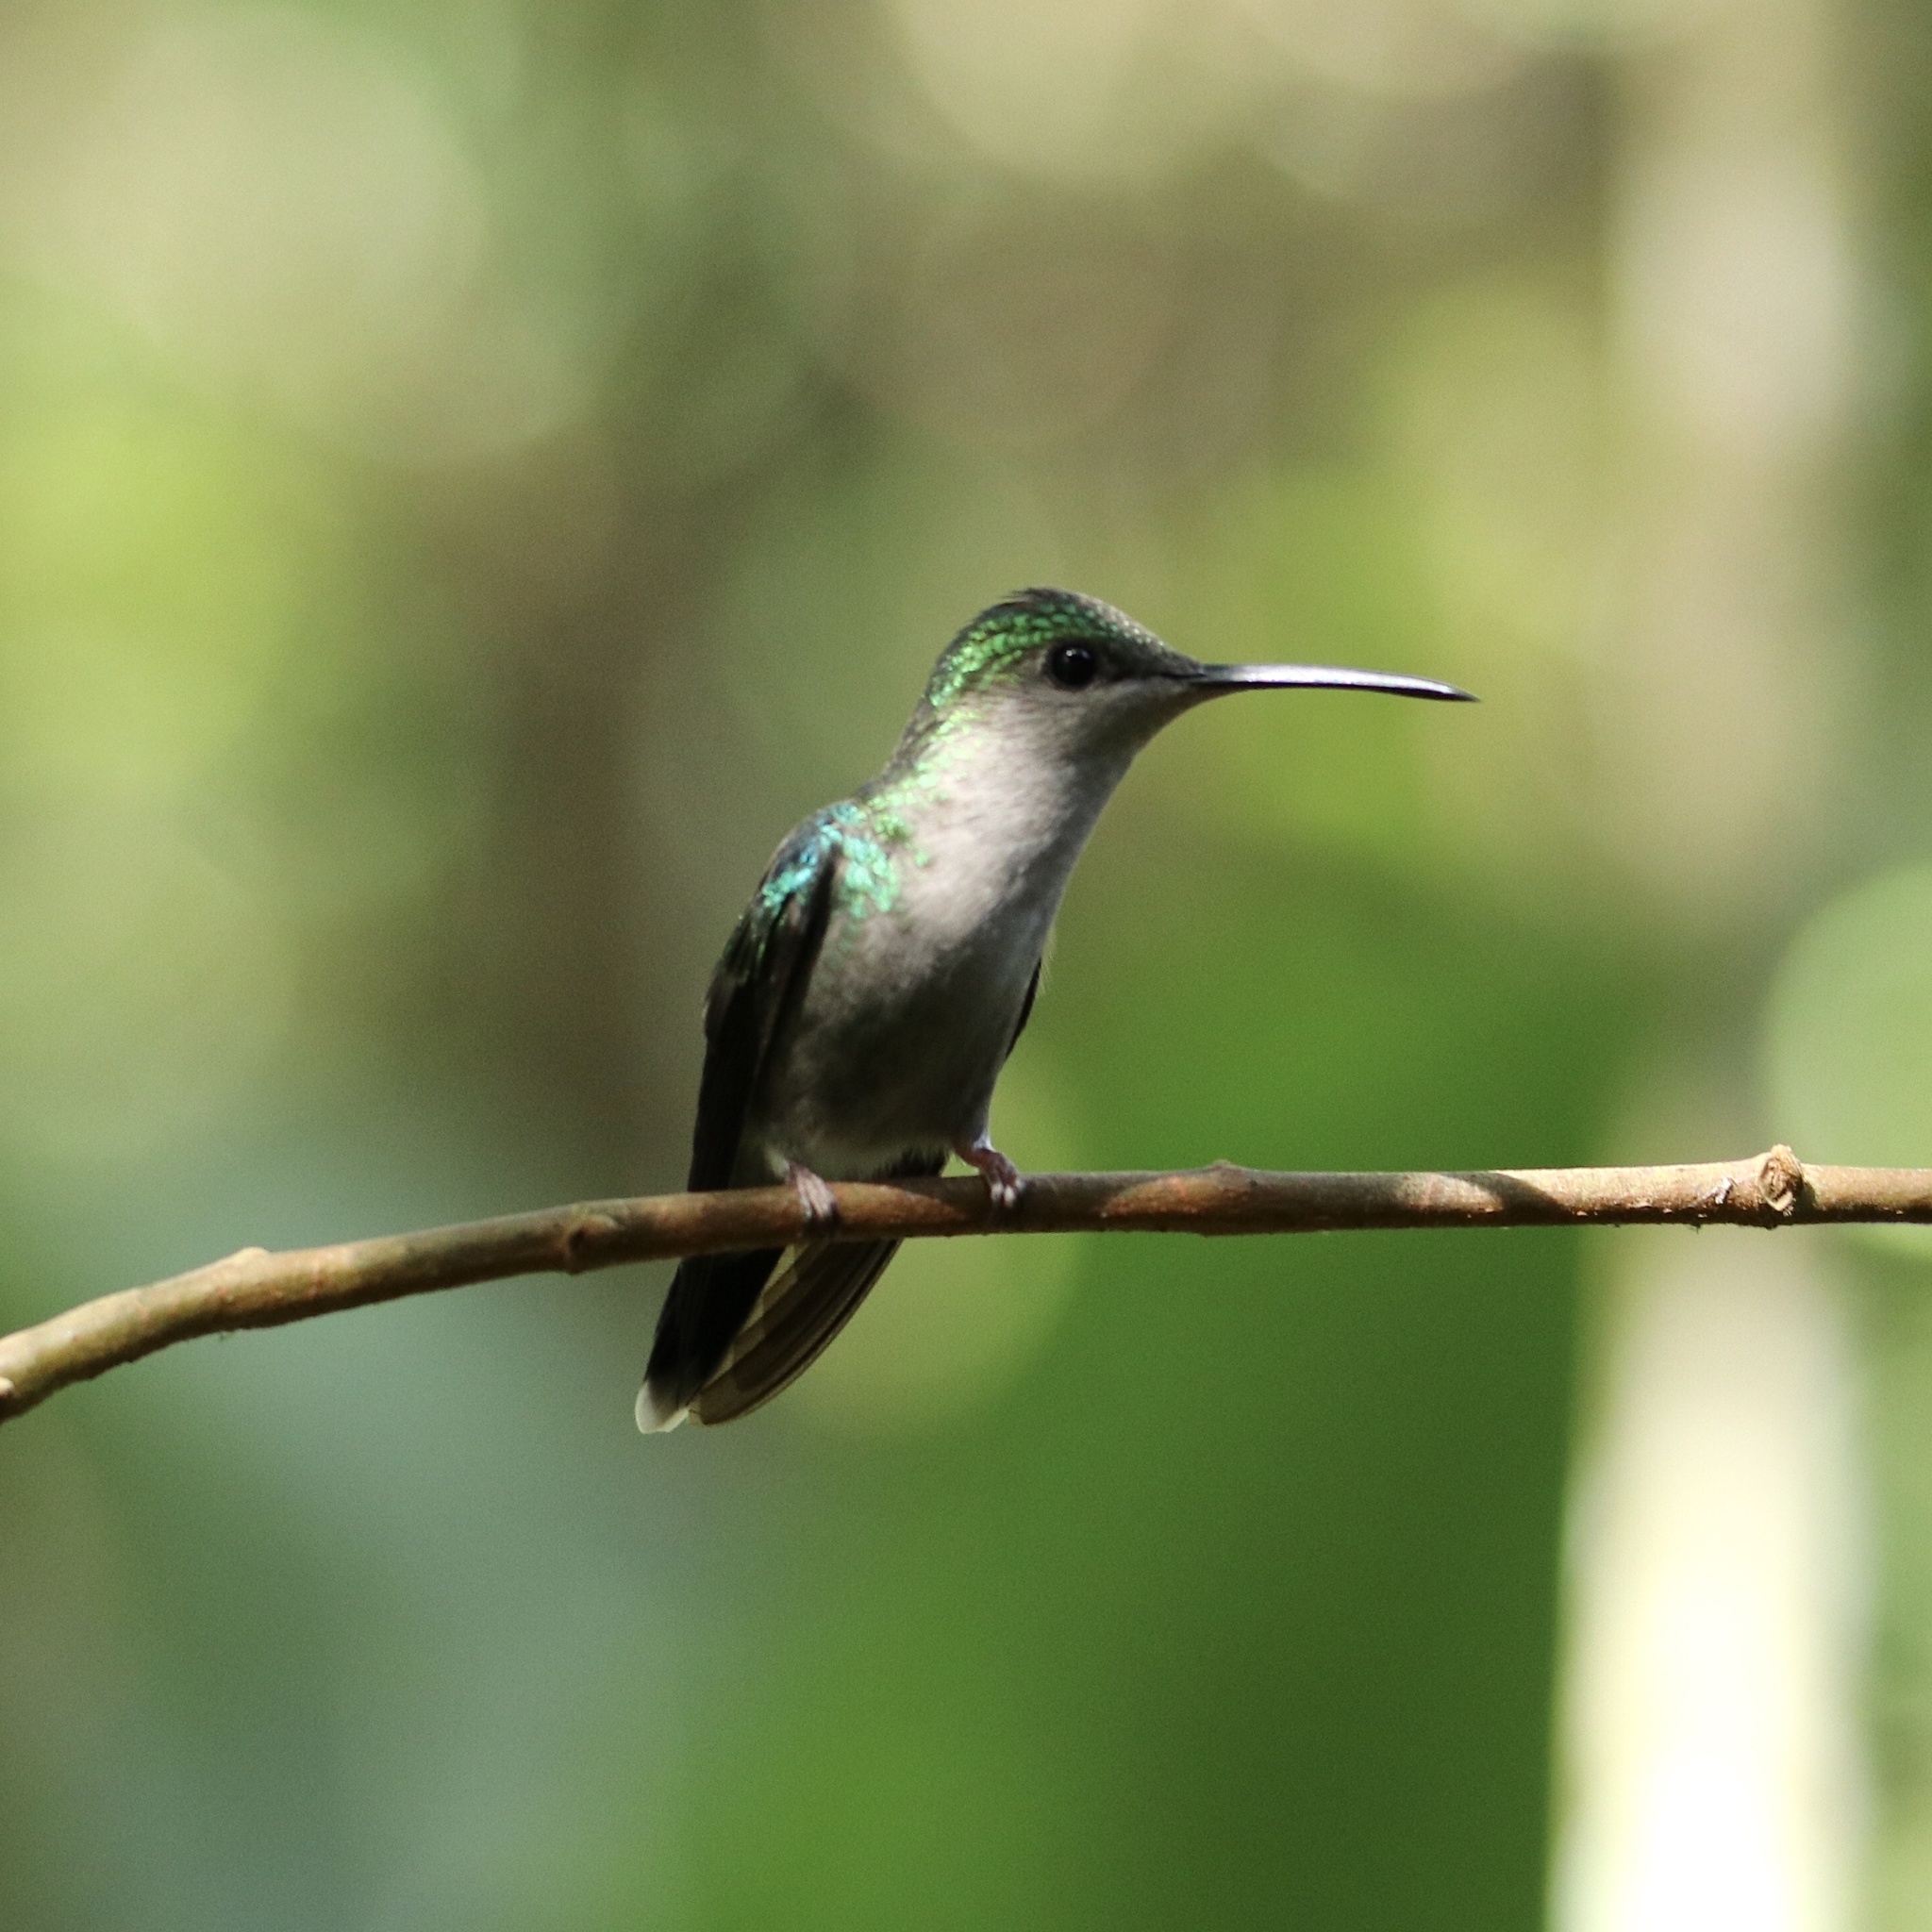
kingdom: Animalia
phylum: Chordata
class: Aves
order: Apodiformes
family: Trochilidae
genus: Thalurania
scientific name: Thalurania colombica
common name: Crowned woodnymph
